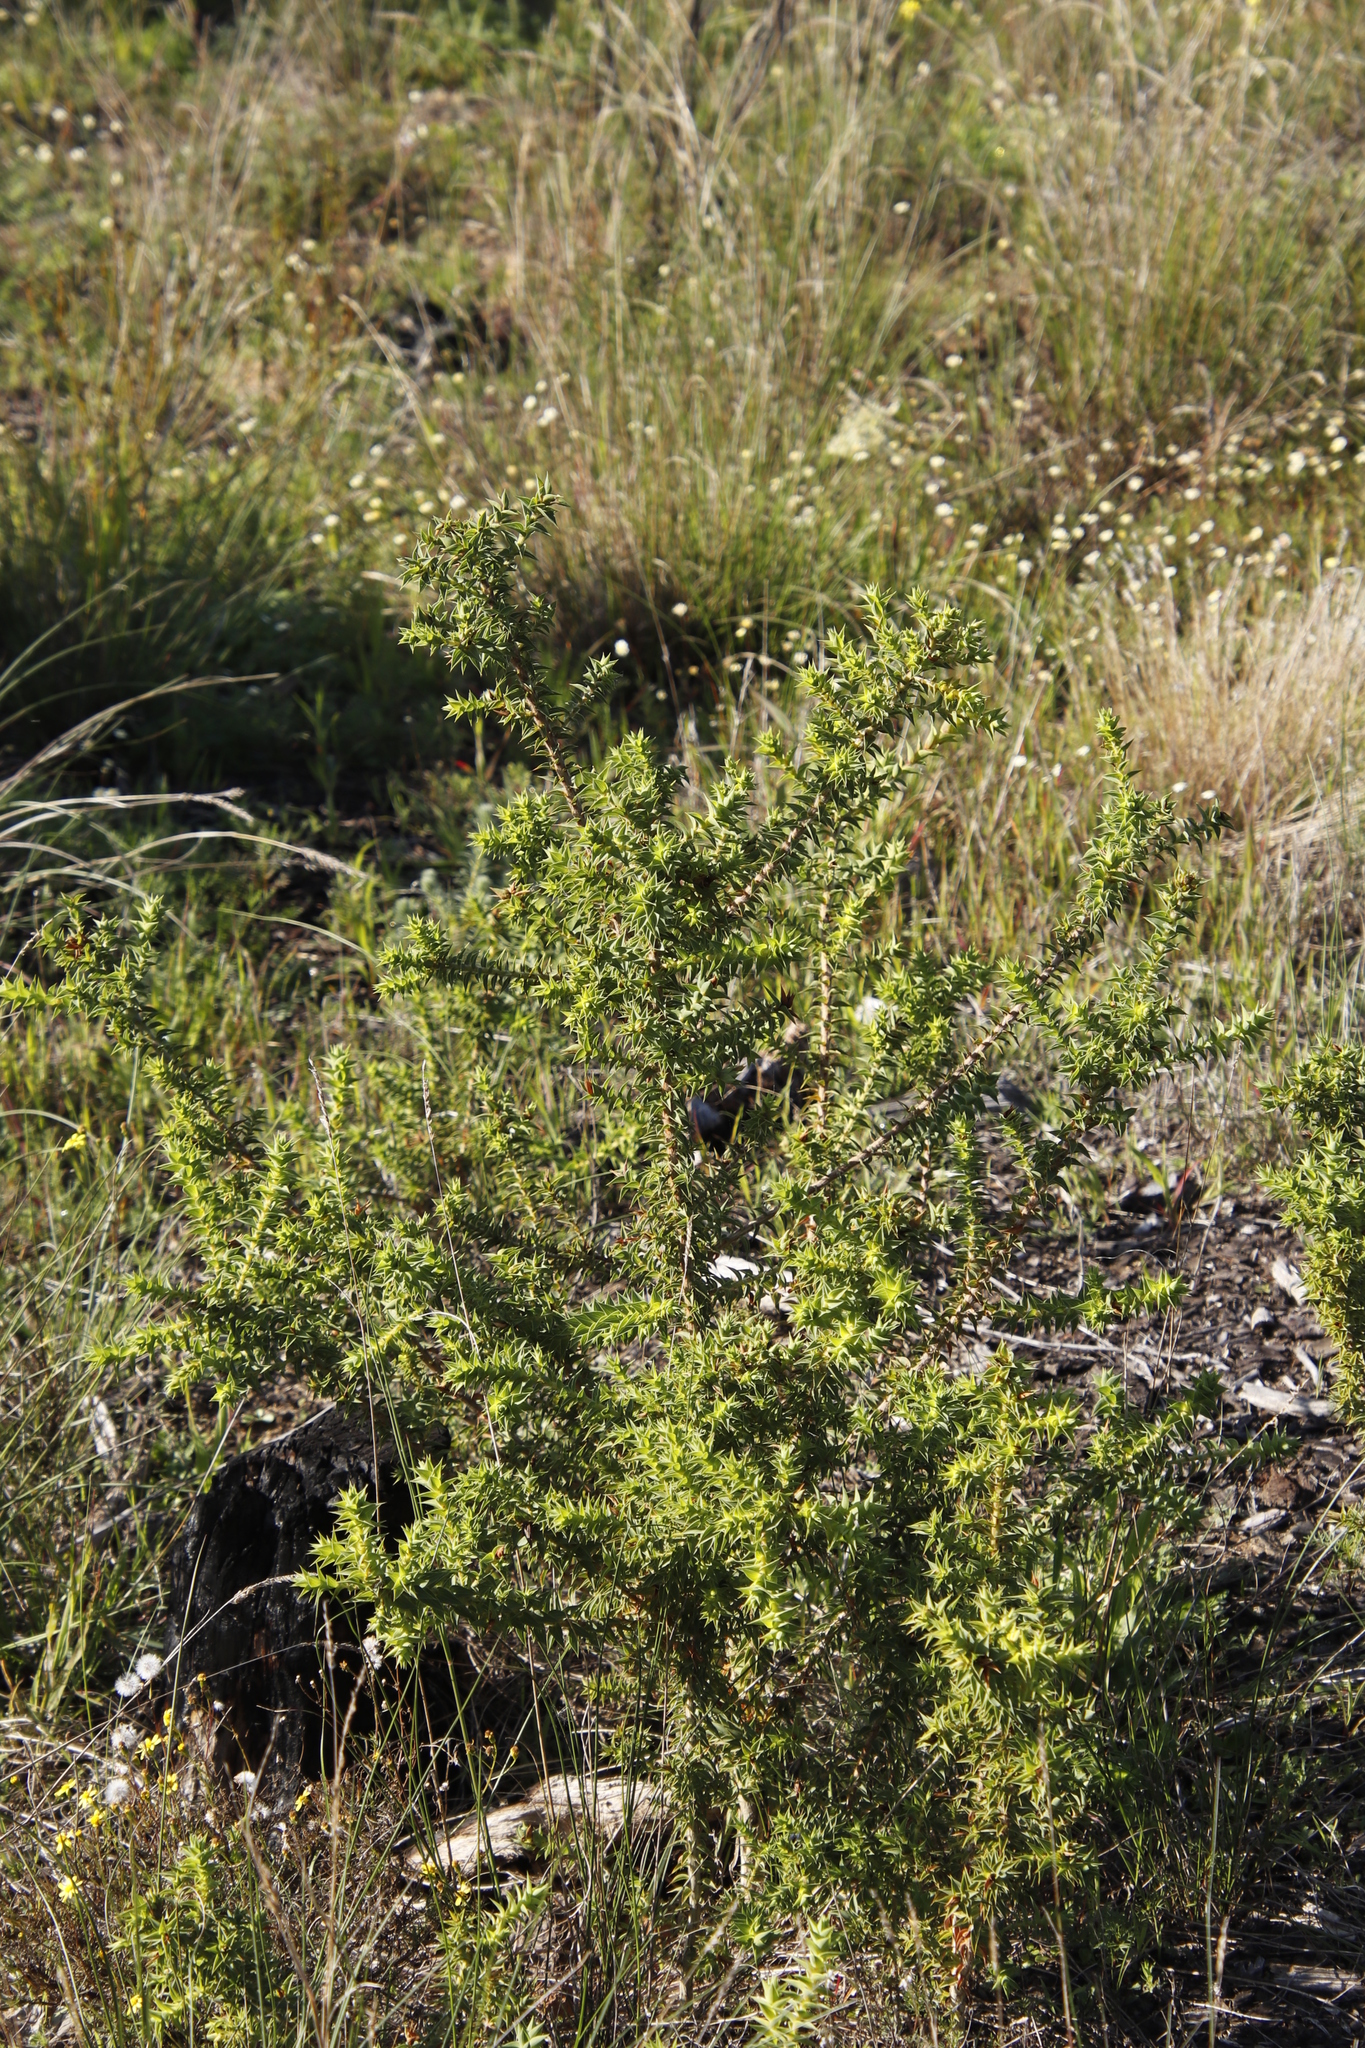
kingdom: Plantae
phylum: Tracheophyta
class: Magnoliopsida
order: Fabales
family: Fabaceae
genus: Aspalathus
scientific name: Aspalathus cordata
